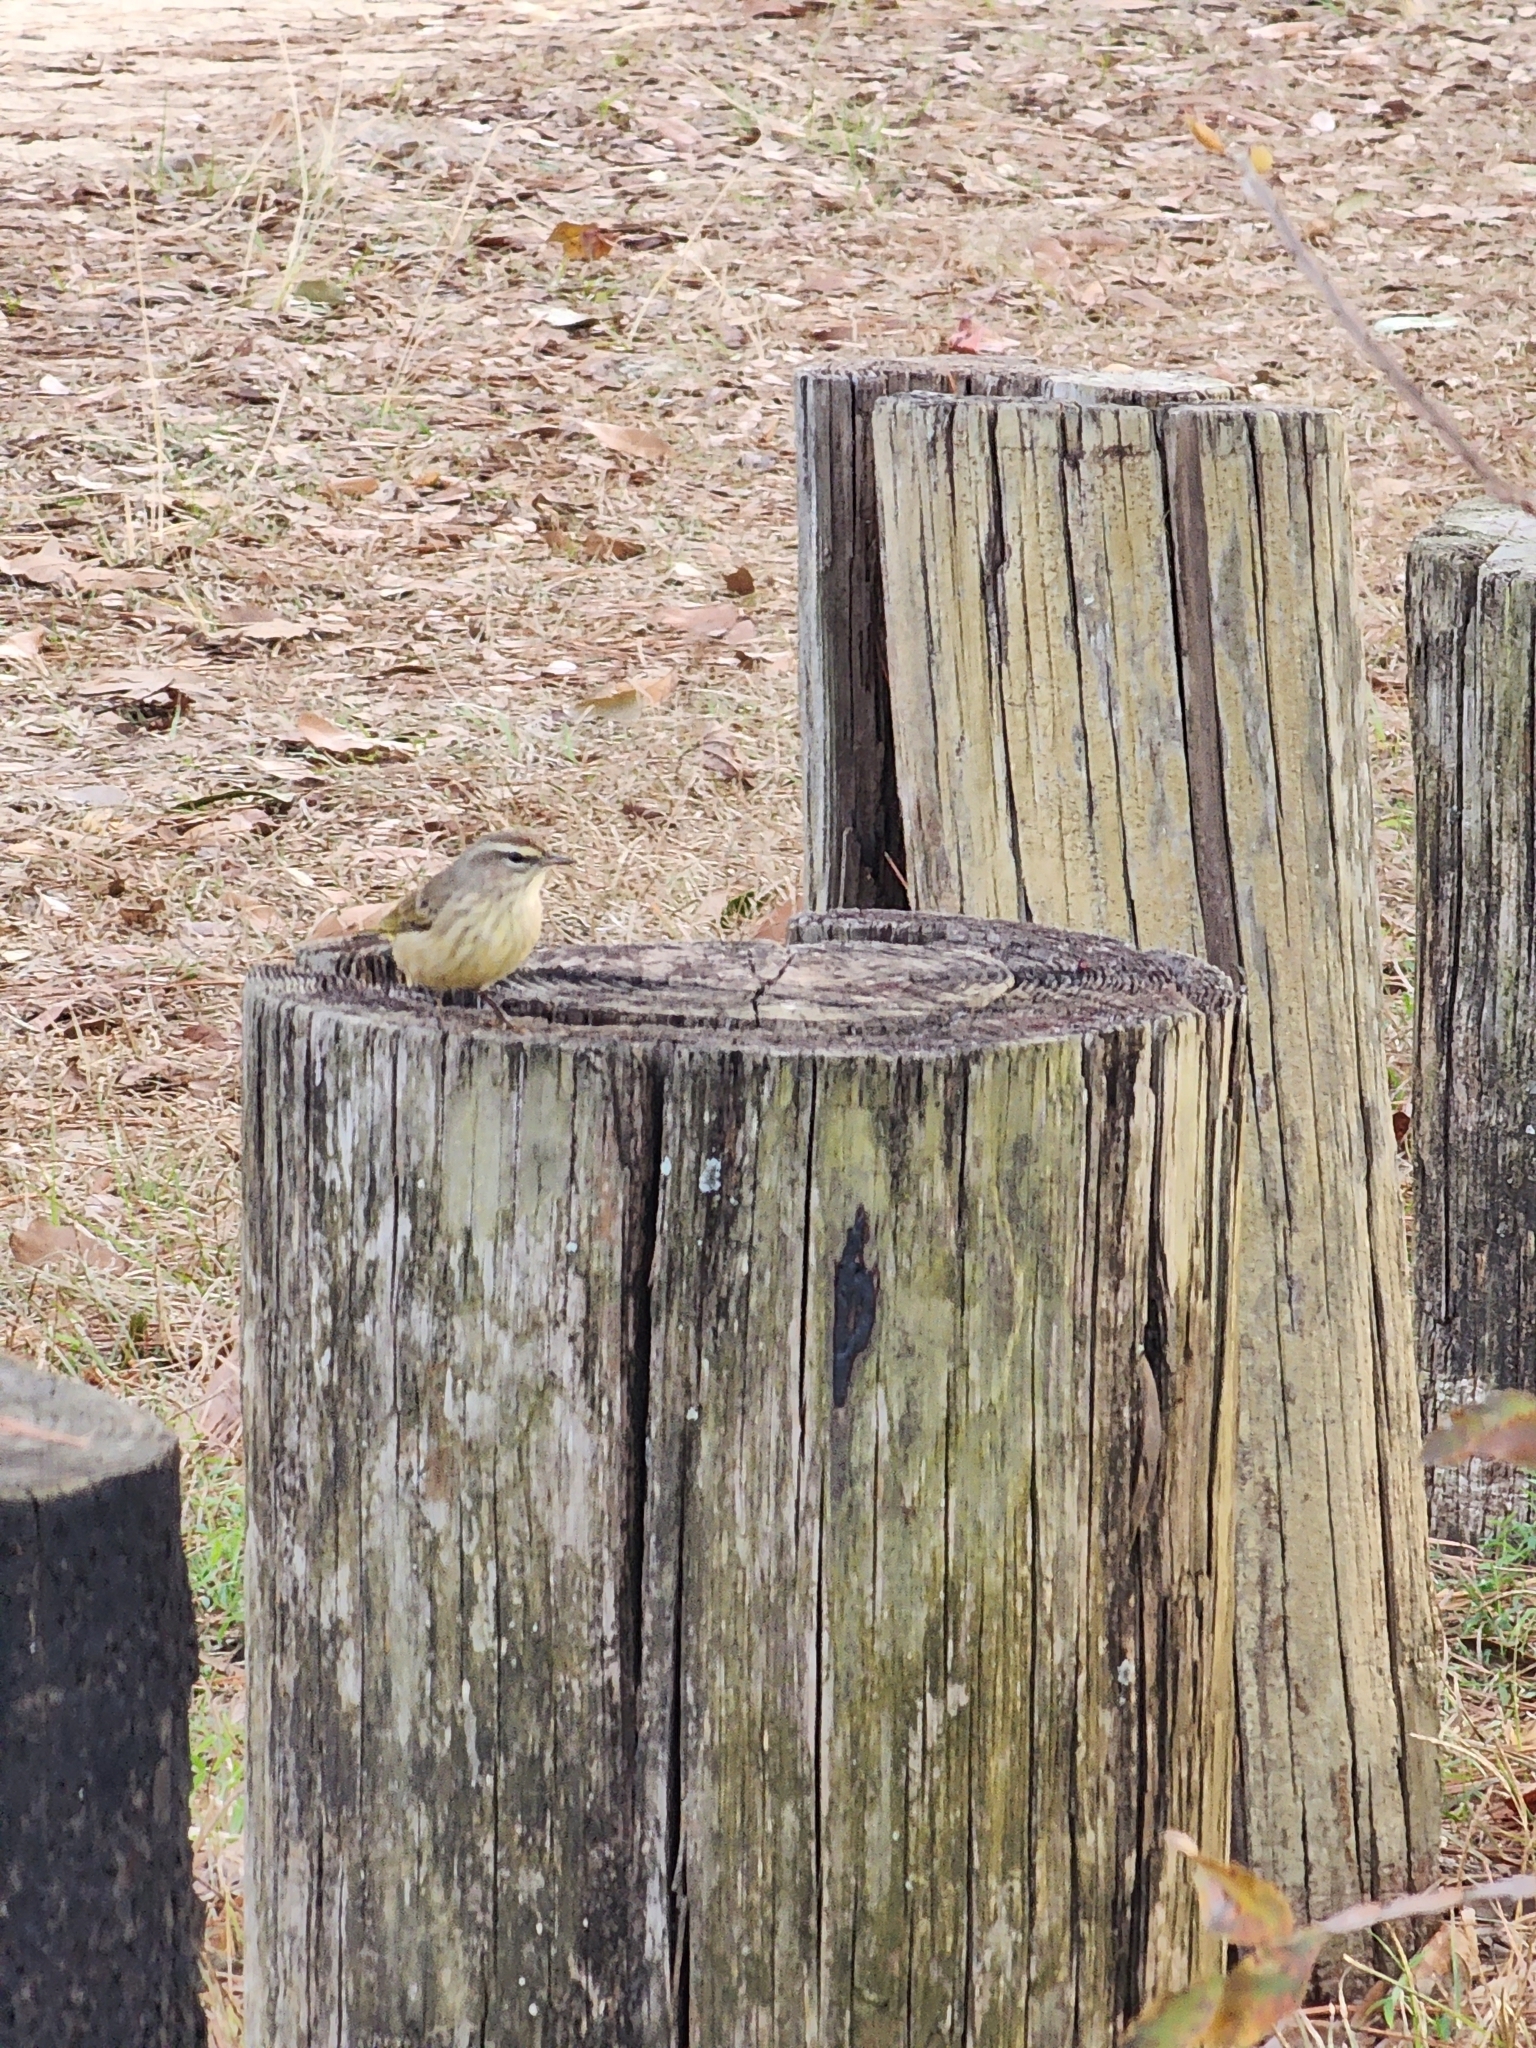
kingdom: Animalia
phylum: Chordata
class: Aves
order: Passeriformes
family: Parulidae
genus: Setophaga
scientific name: Setophaga palmarum
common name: Palm warbler
